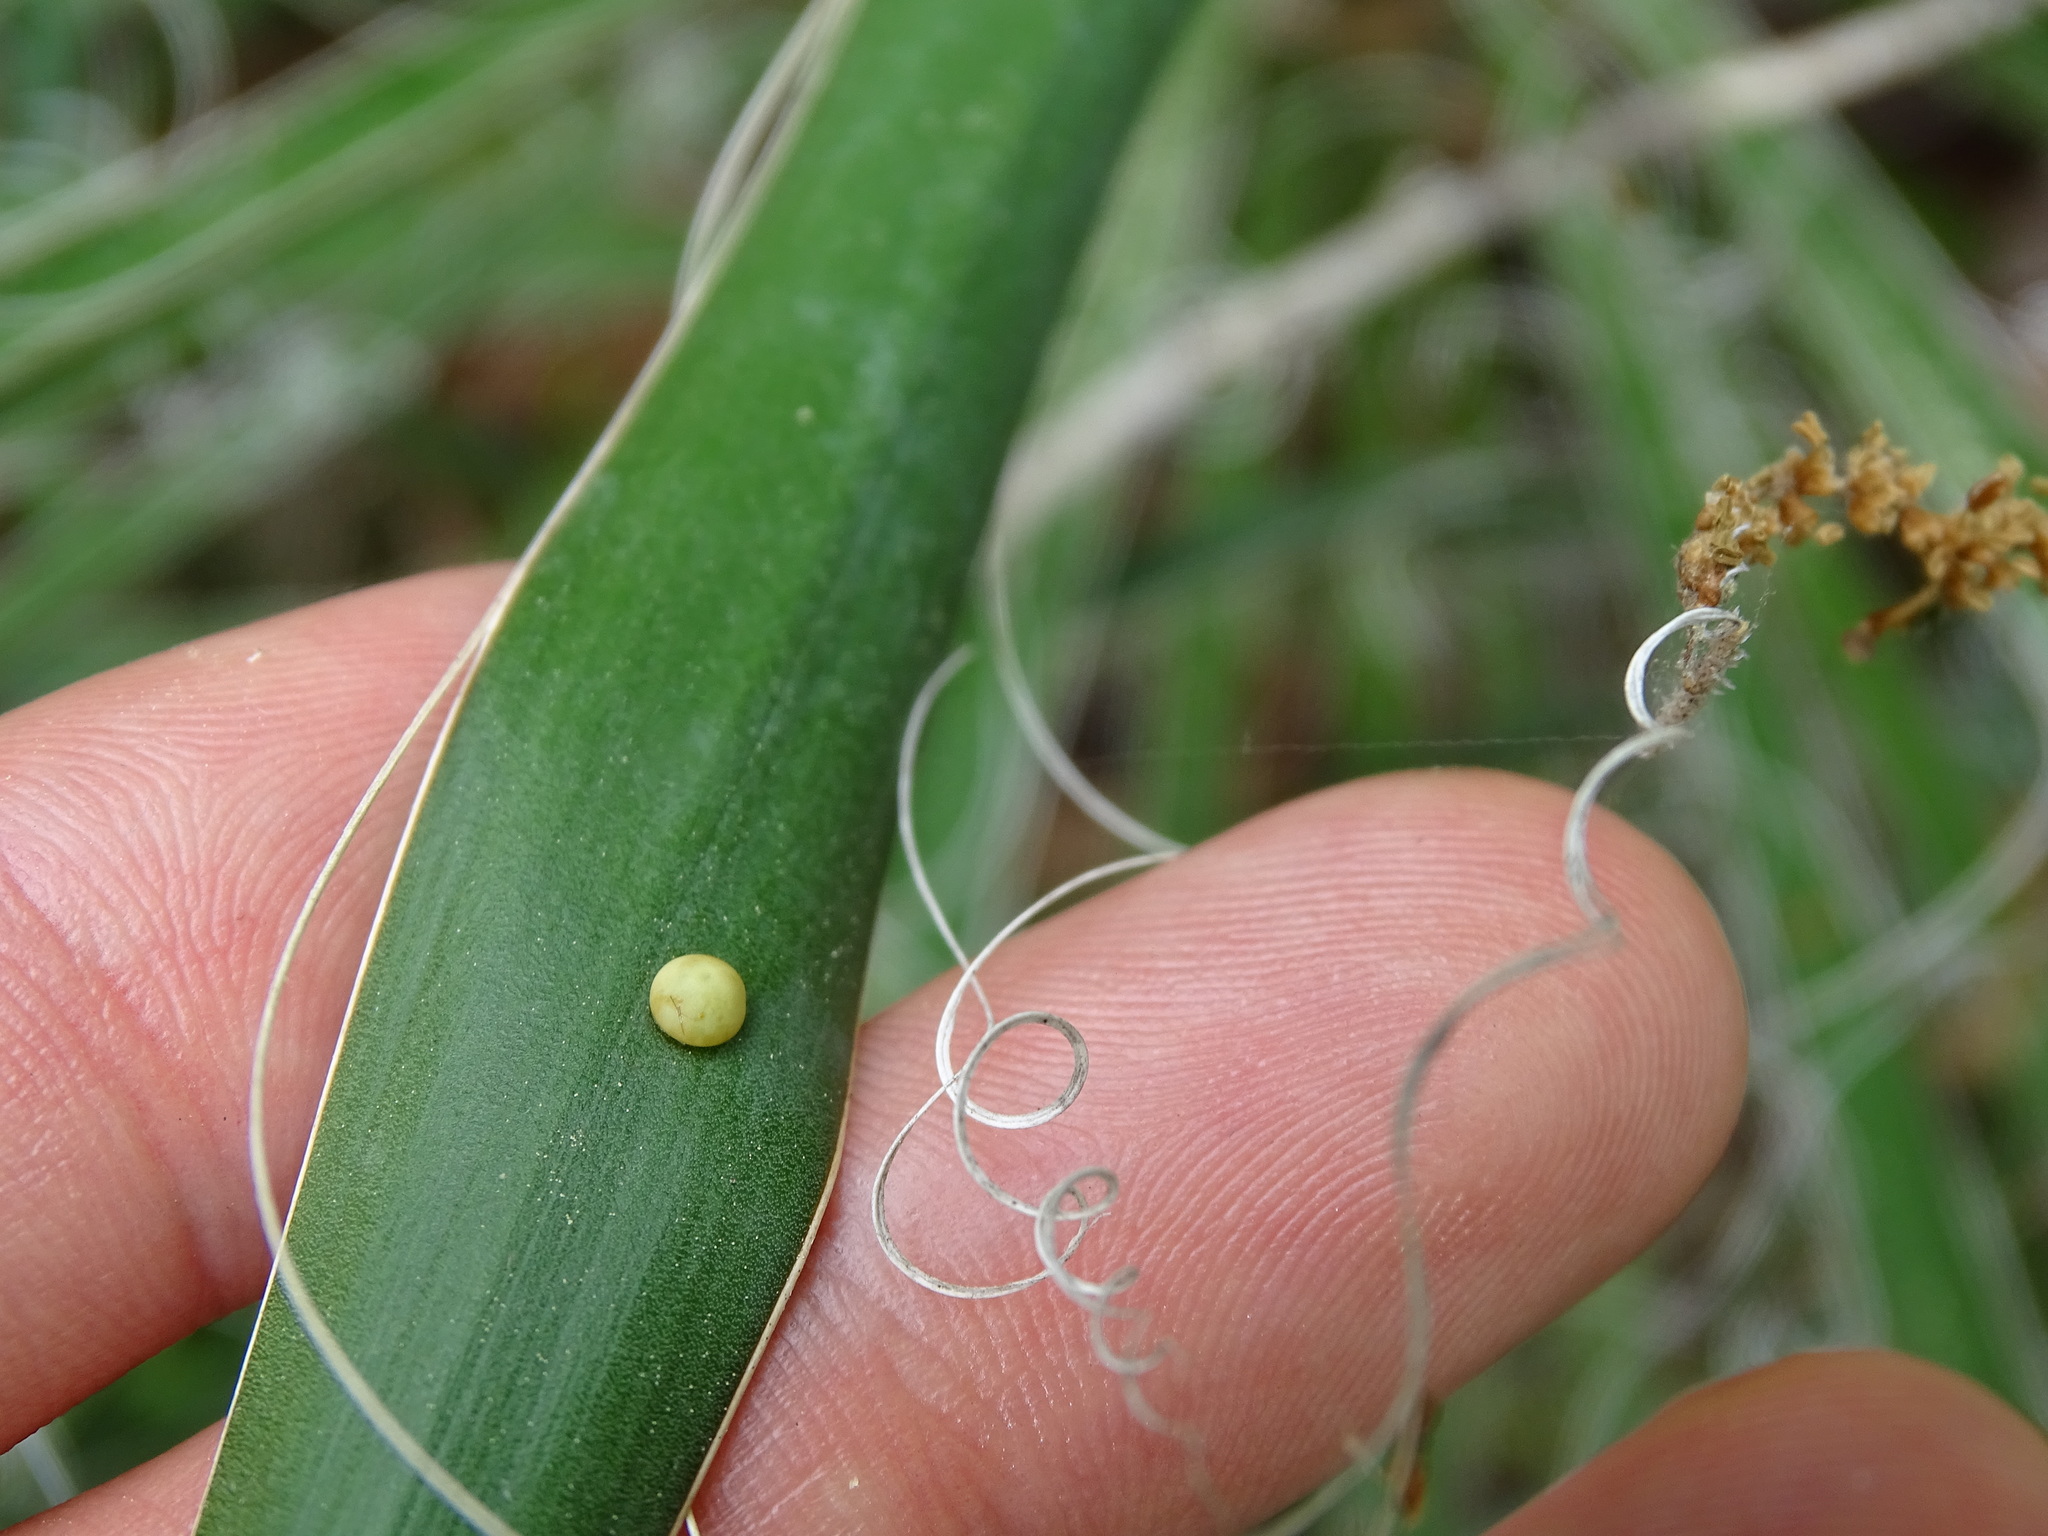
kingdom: Animalia
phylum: Arthropoda
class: Insecta
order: Lepidoptera
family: Hesperiidae
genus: Megathymus
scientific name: Megathymus yuccae
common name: Yucca giant-skipper
